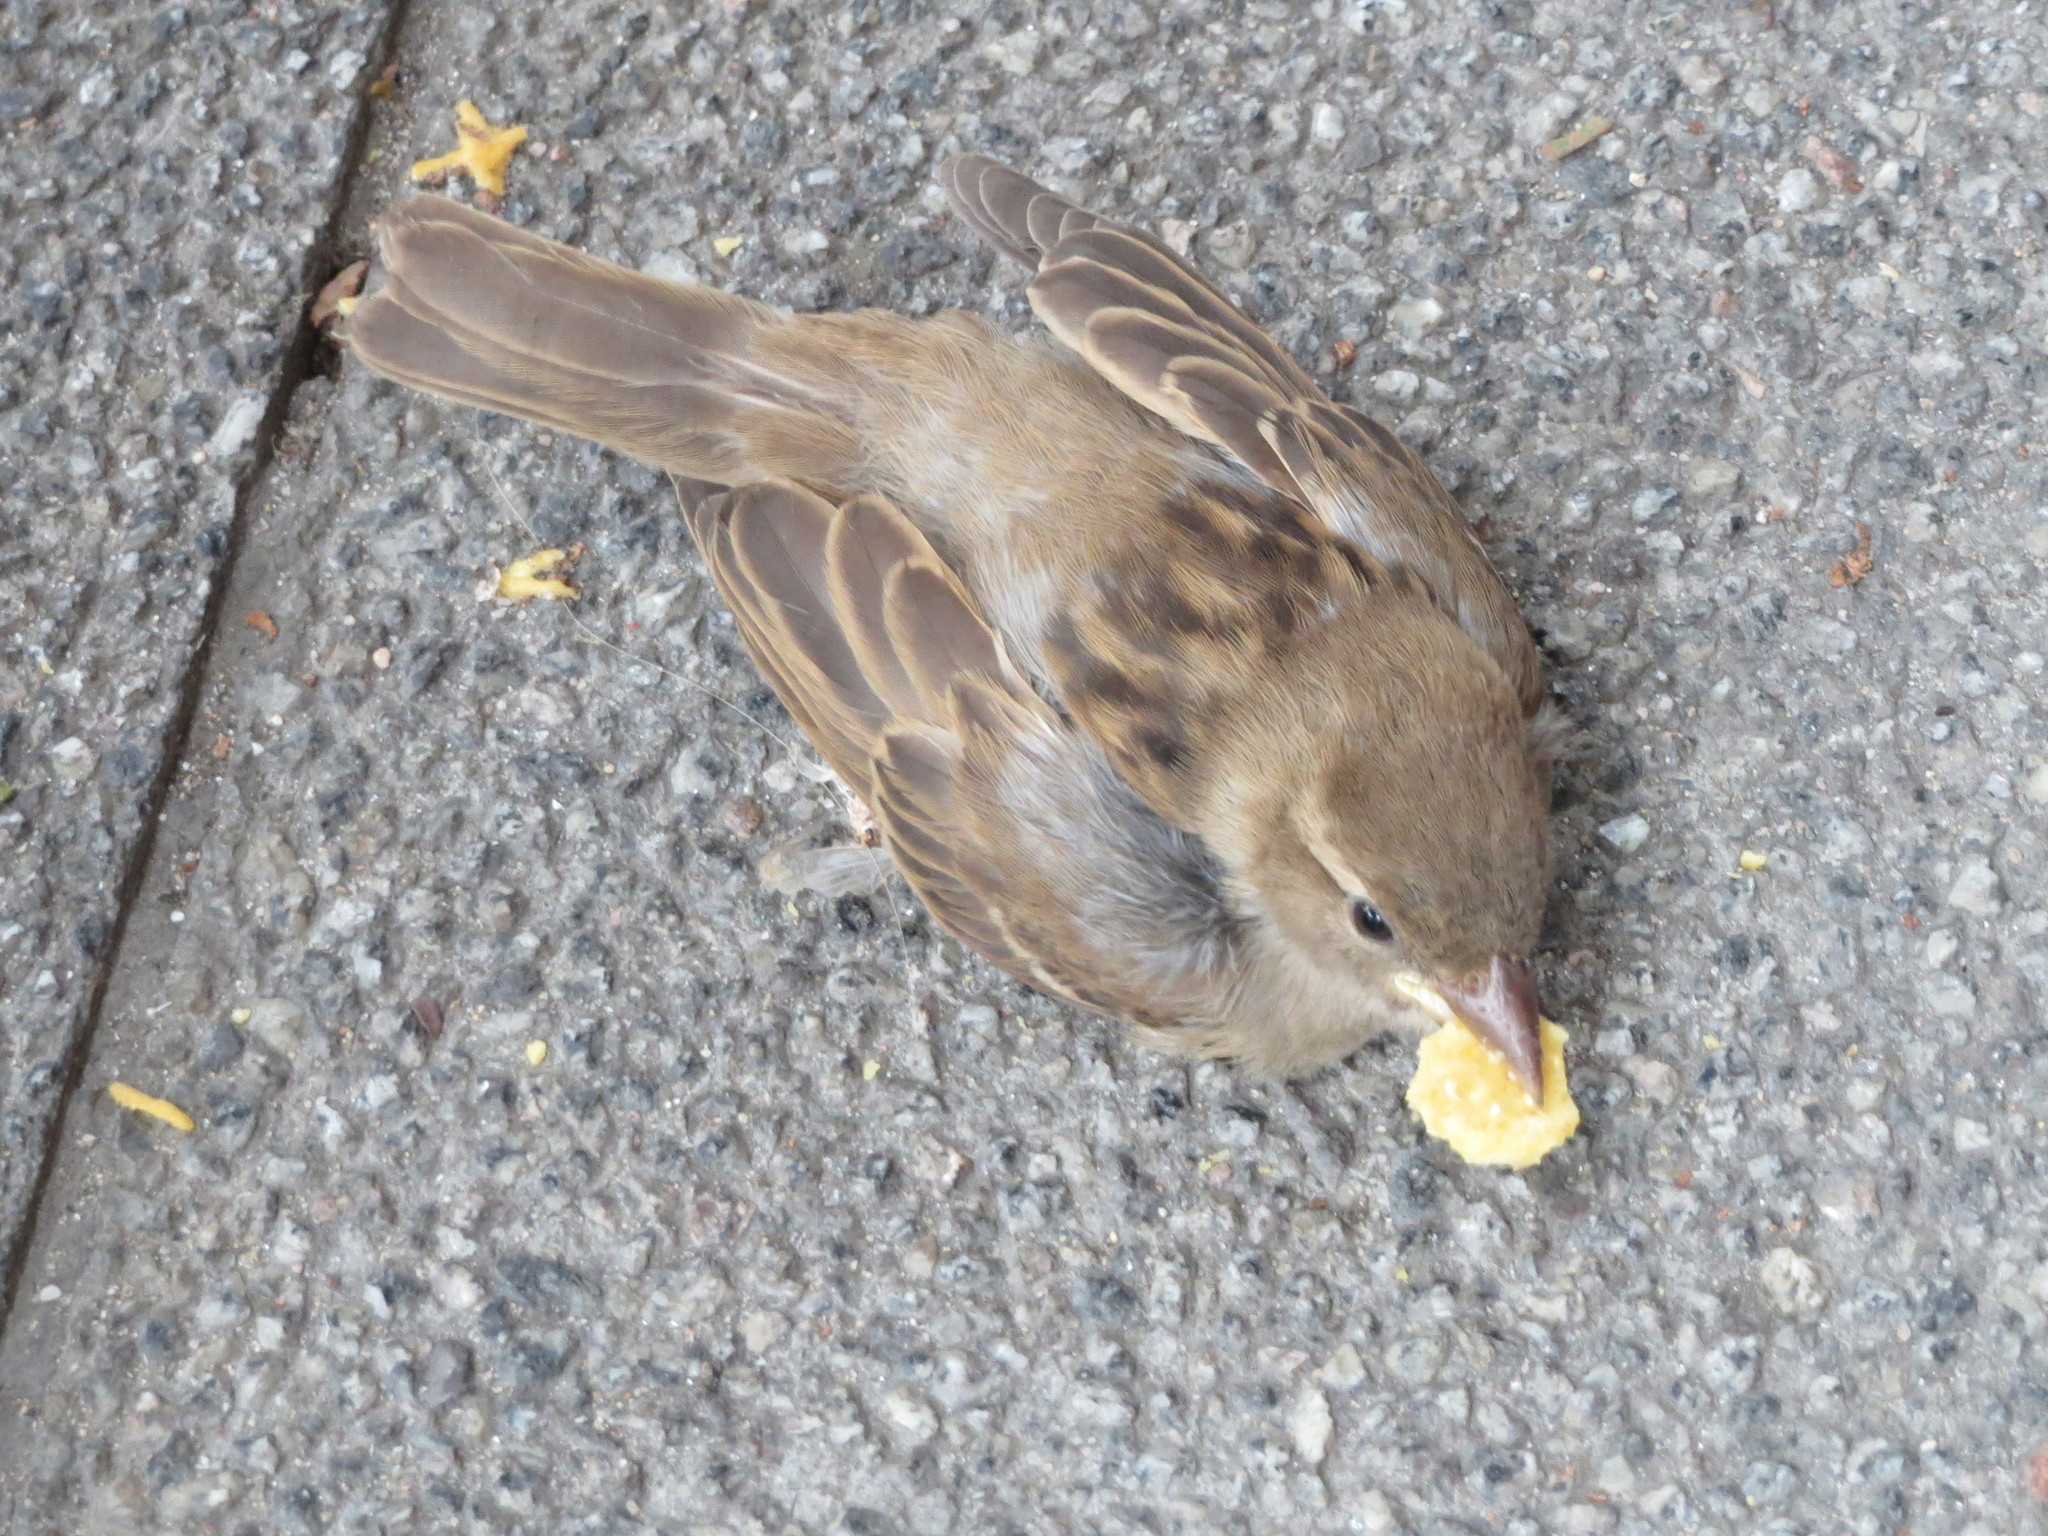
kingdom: Animalia
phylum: Chordata
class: Aves
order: Passeriformes
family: Passeridae
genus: Passer
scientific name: Passer domesticus
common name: House sparrow
